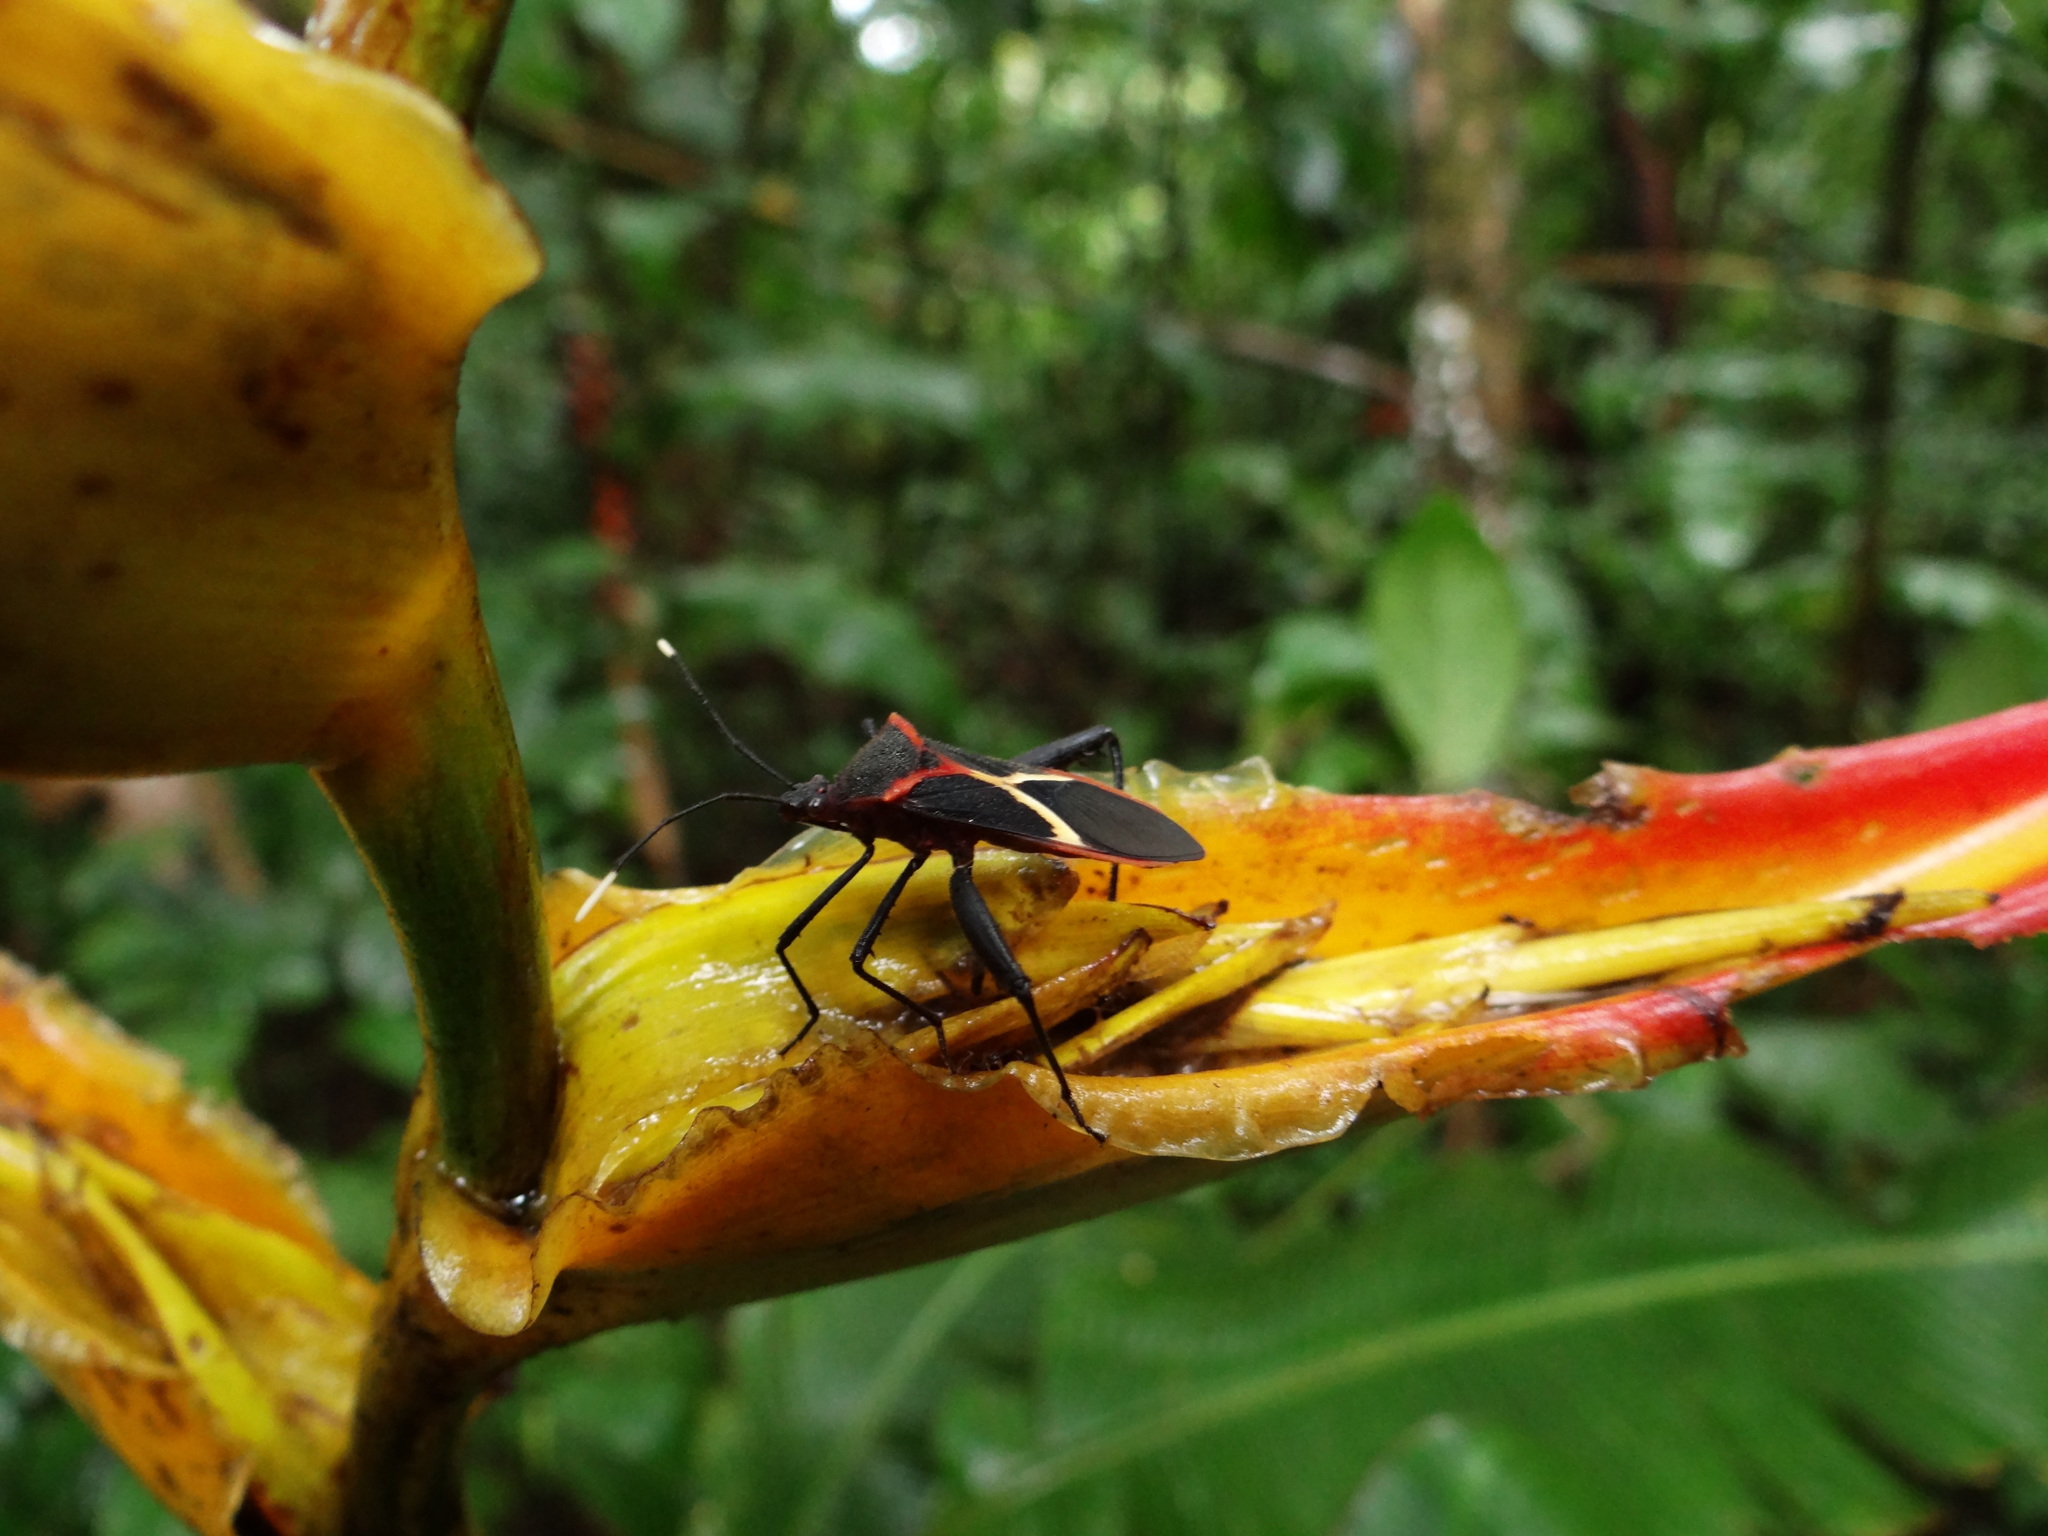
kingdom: Animalia
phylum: Arthropoda
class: Insecta
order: Hemiptera
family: Coreidae
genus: Leptoscelis
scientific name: Leptoscelis tricolor
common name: Heliconia bug
